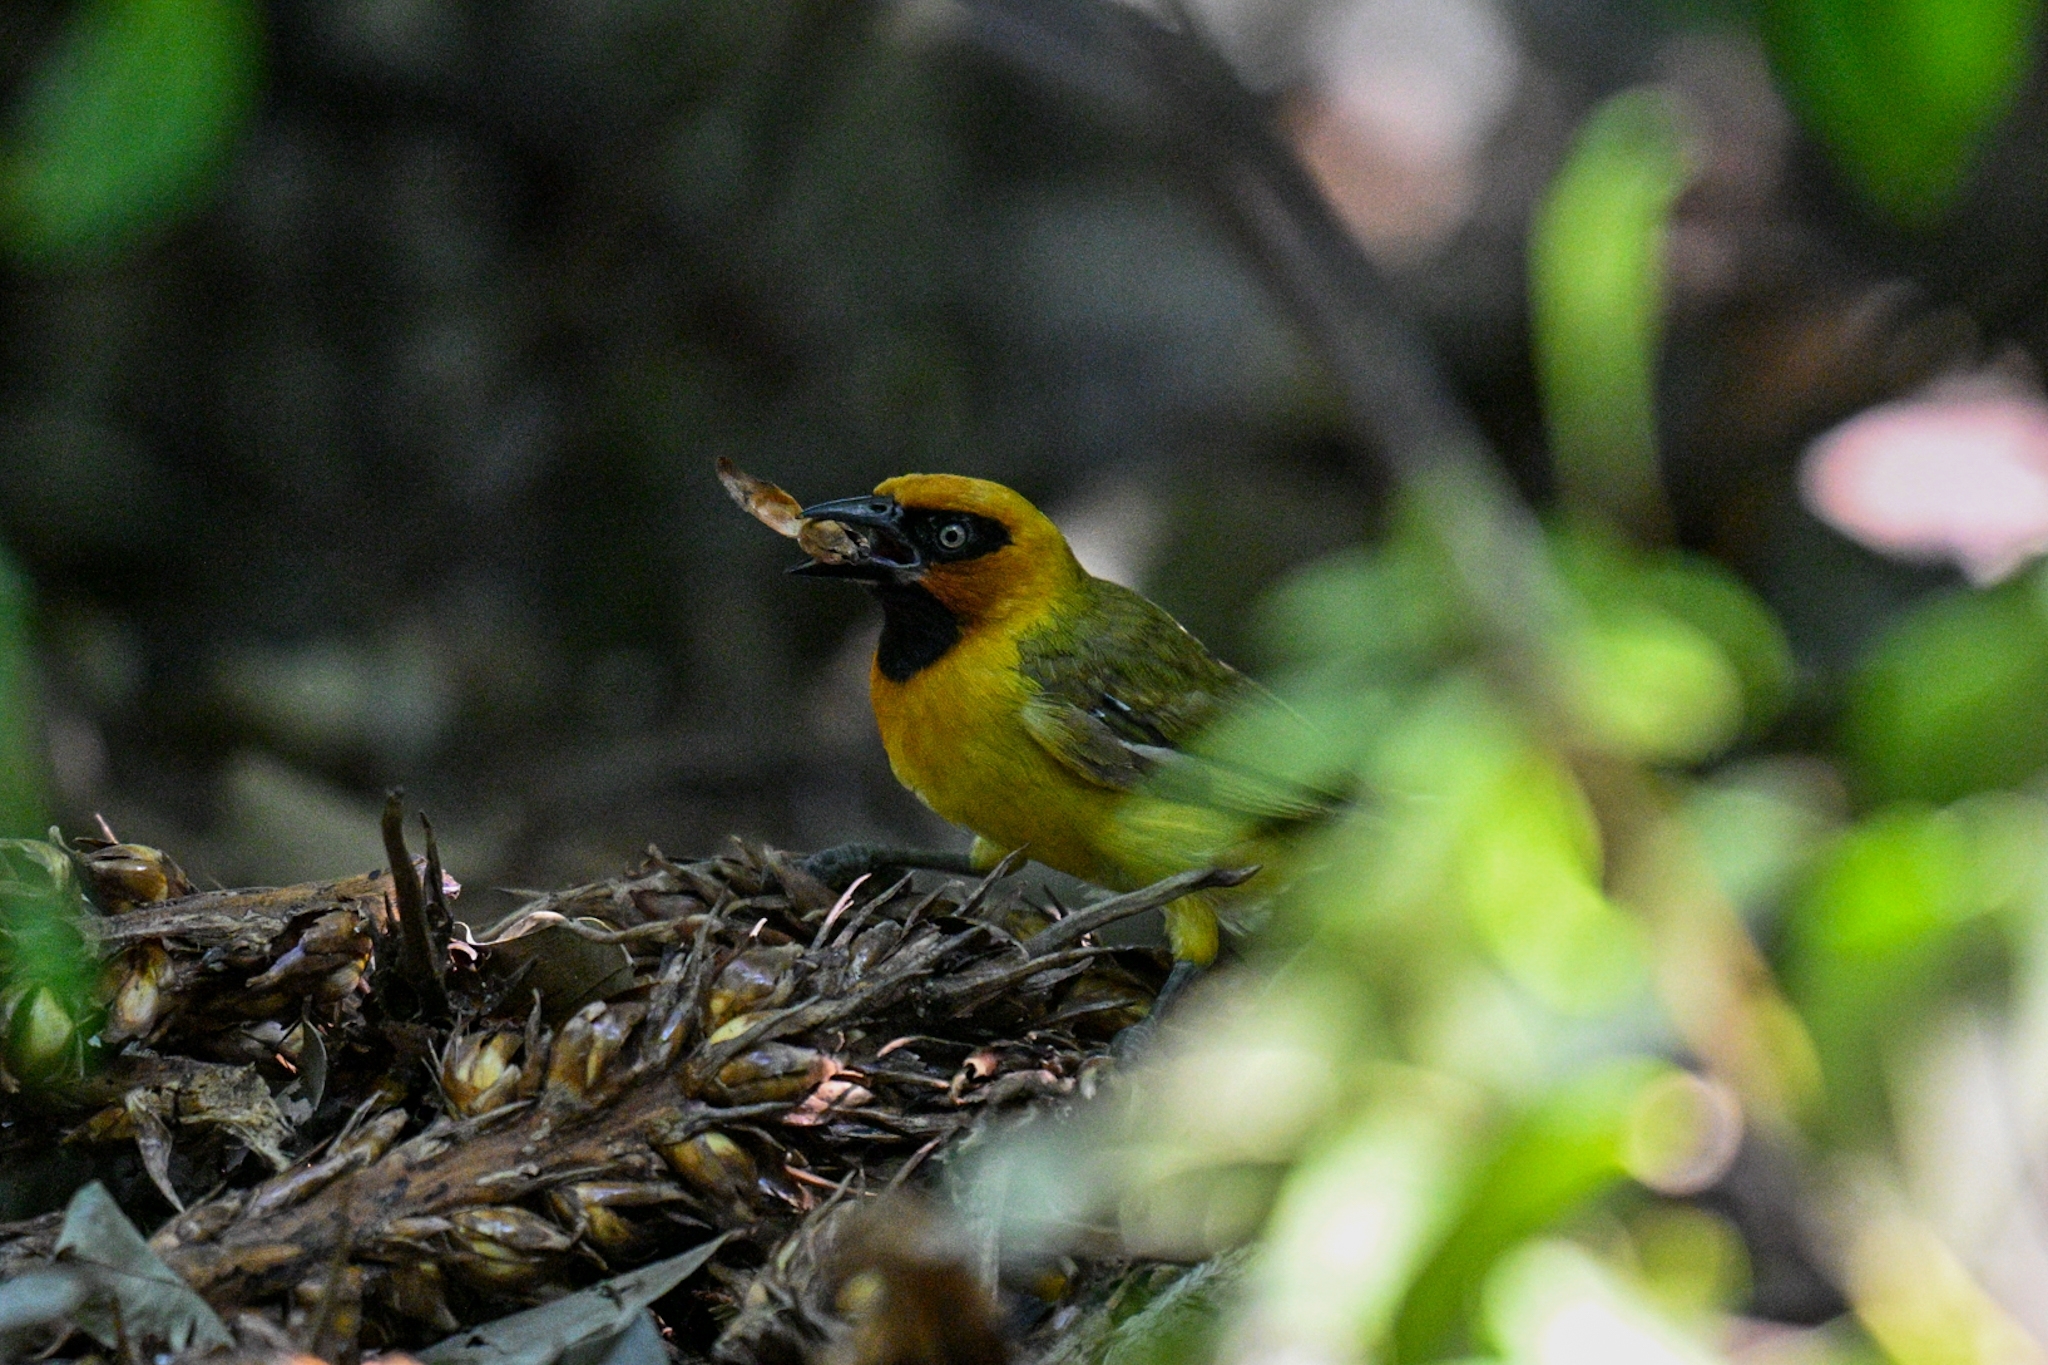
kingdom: Animalia
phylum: Chordata
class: Aves
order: Passeriformes
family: Ploceidae
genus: Ploceus
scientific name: Ploceus brachypterus
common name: Olive-naped weaver
